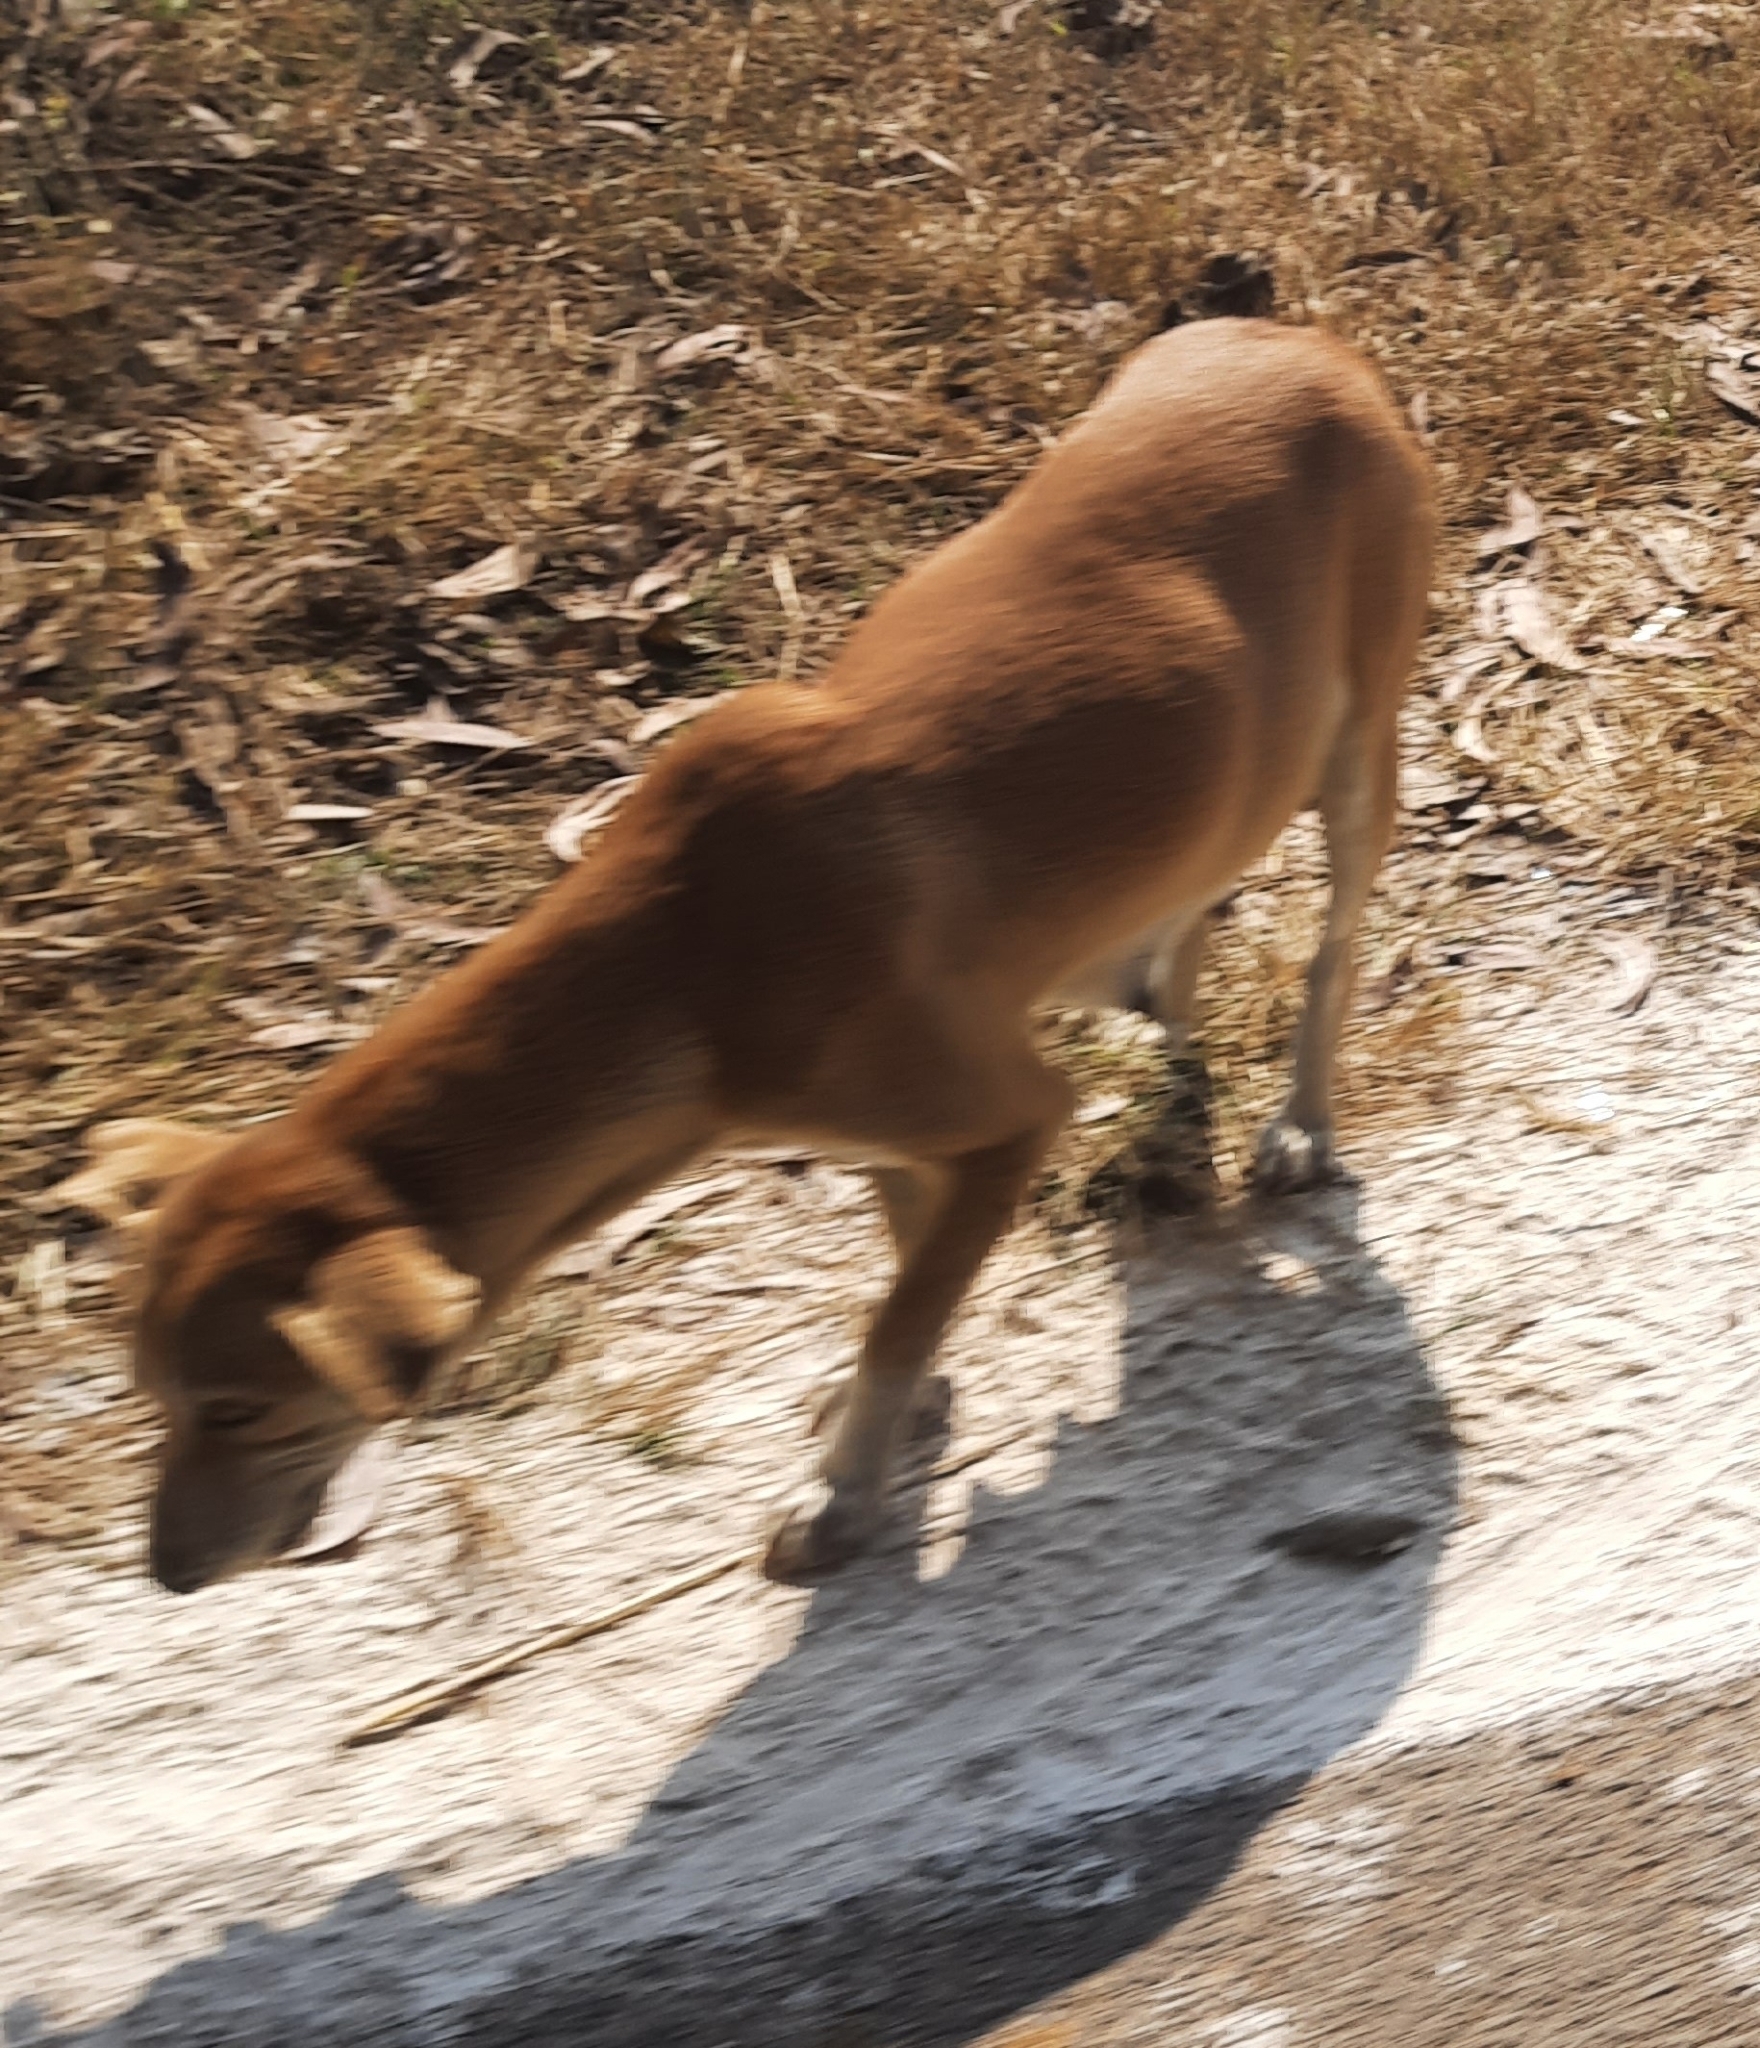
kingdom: Animalia
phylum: Chordata
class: Mammalia
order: Carnivora
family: Canidae
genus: Canis
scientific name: Canis lupus
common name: Gray wolf
